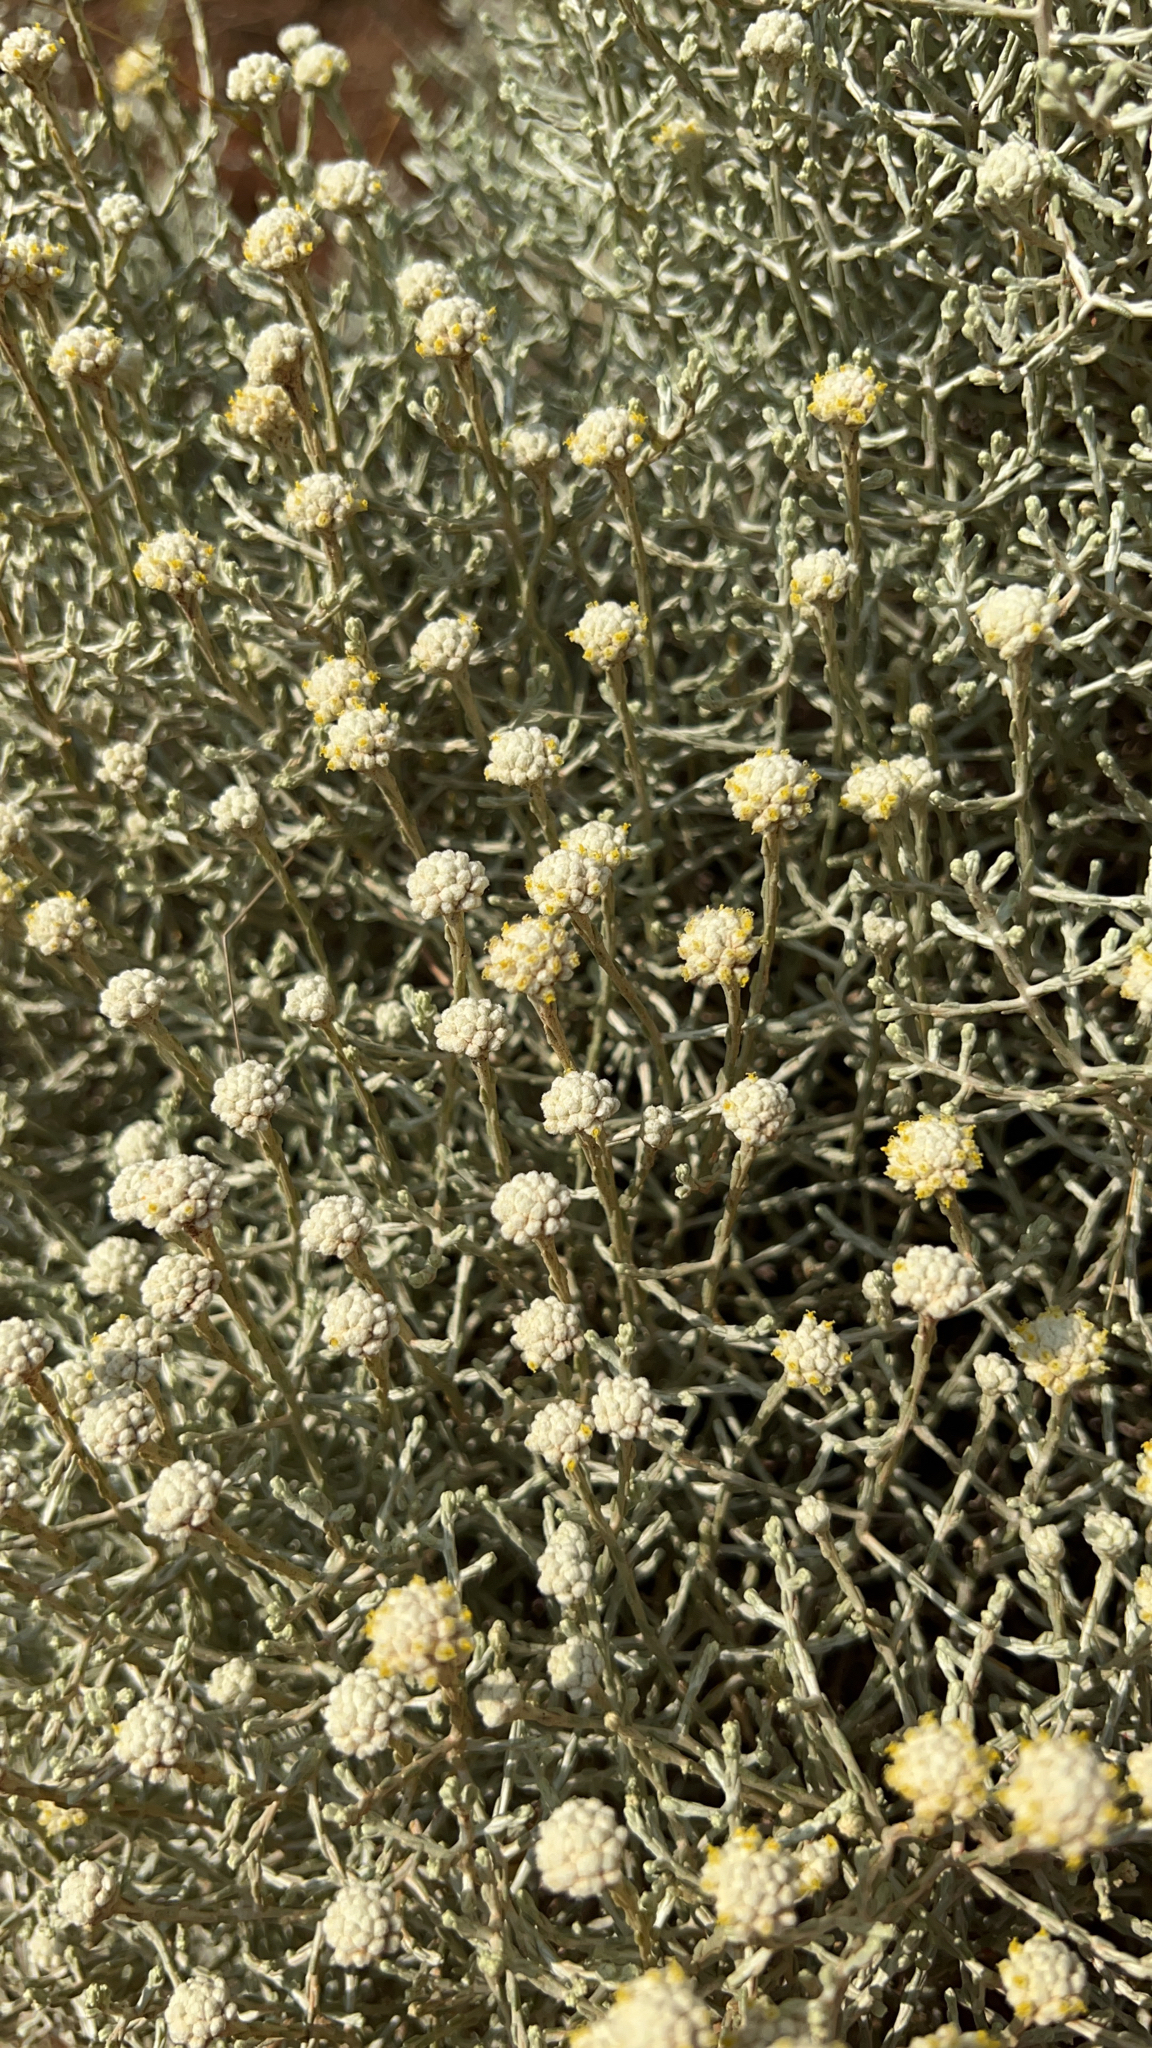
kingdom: Plantae
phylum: Tracheophyta
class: Magnoliopsida
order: Asterales
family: Asteraceae
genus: Calocephalus
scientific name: Calocephalus brownii
